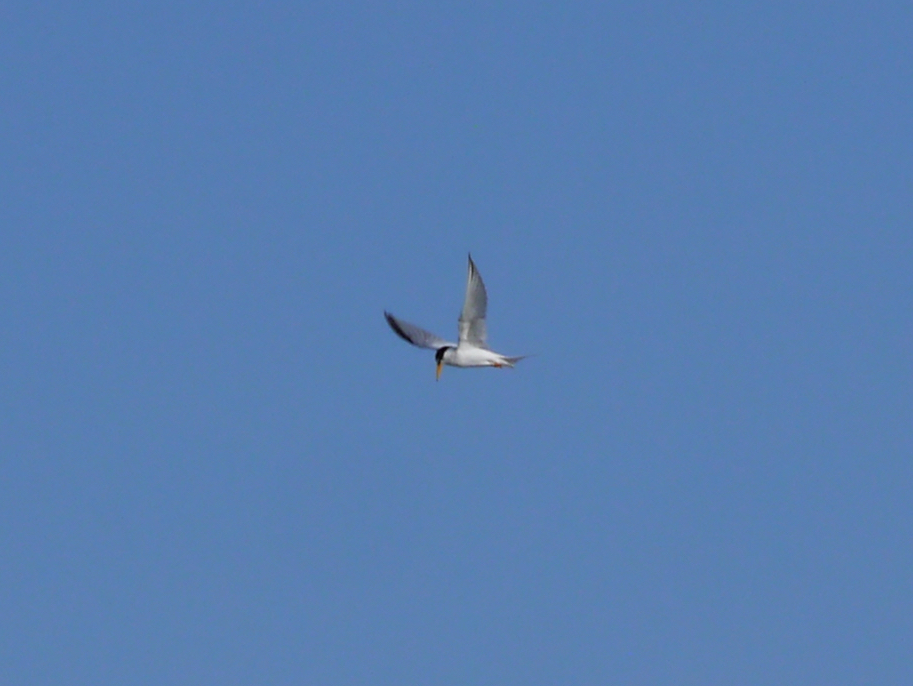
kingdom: Animalia
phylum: Chordata
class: Aves
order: Charadriiformes
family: Laridae
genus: Sternula
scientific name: Sternula antillarum
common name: Least tern
